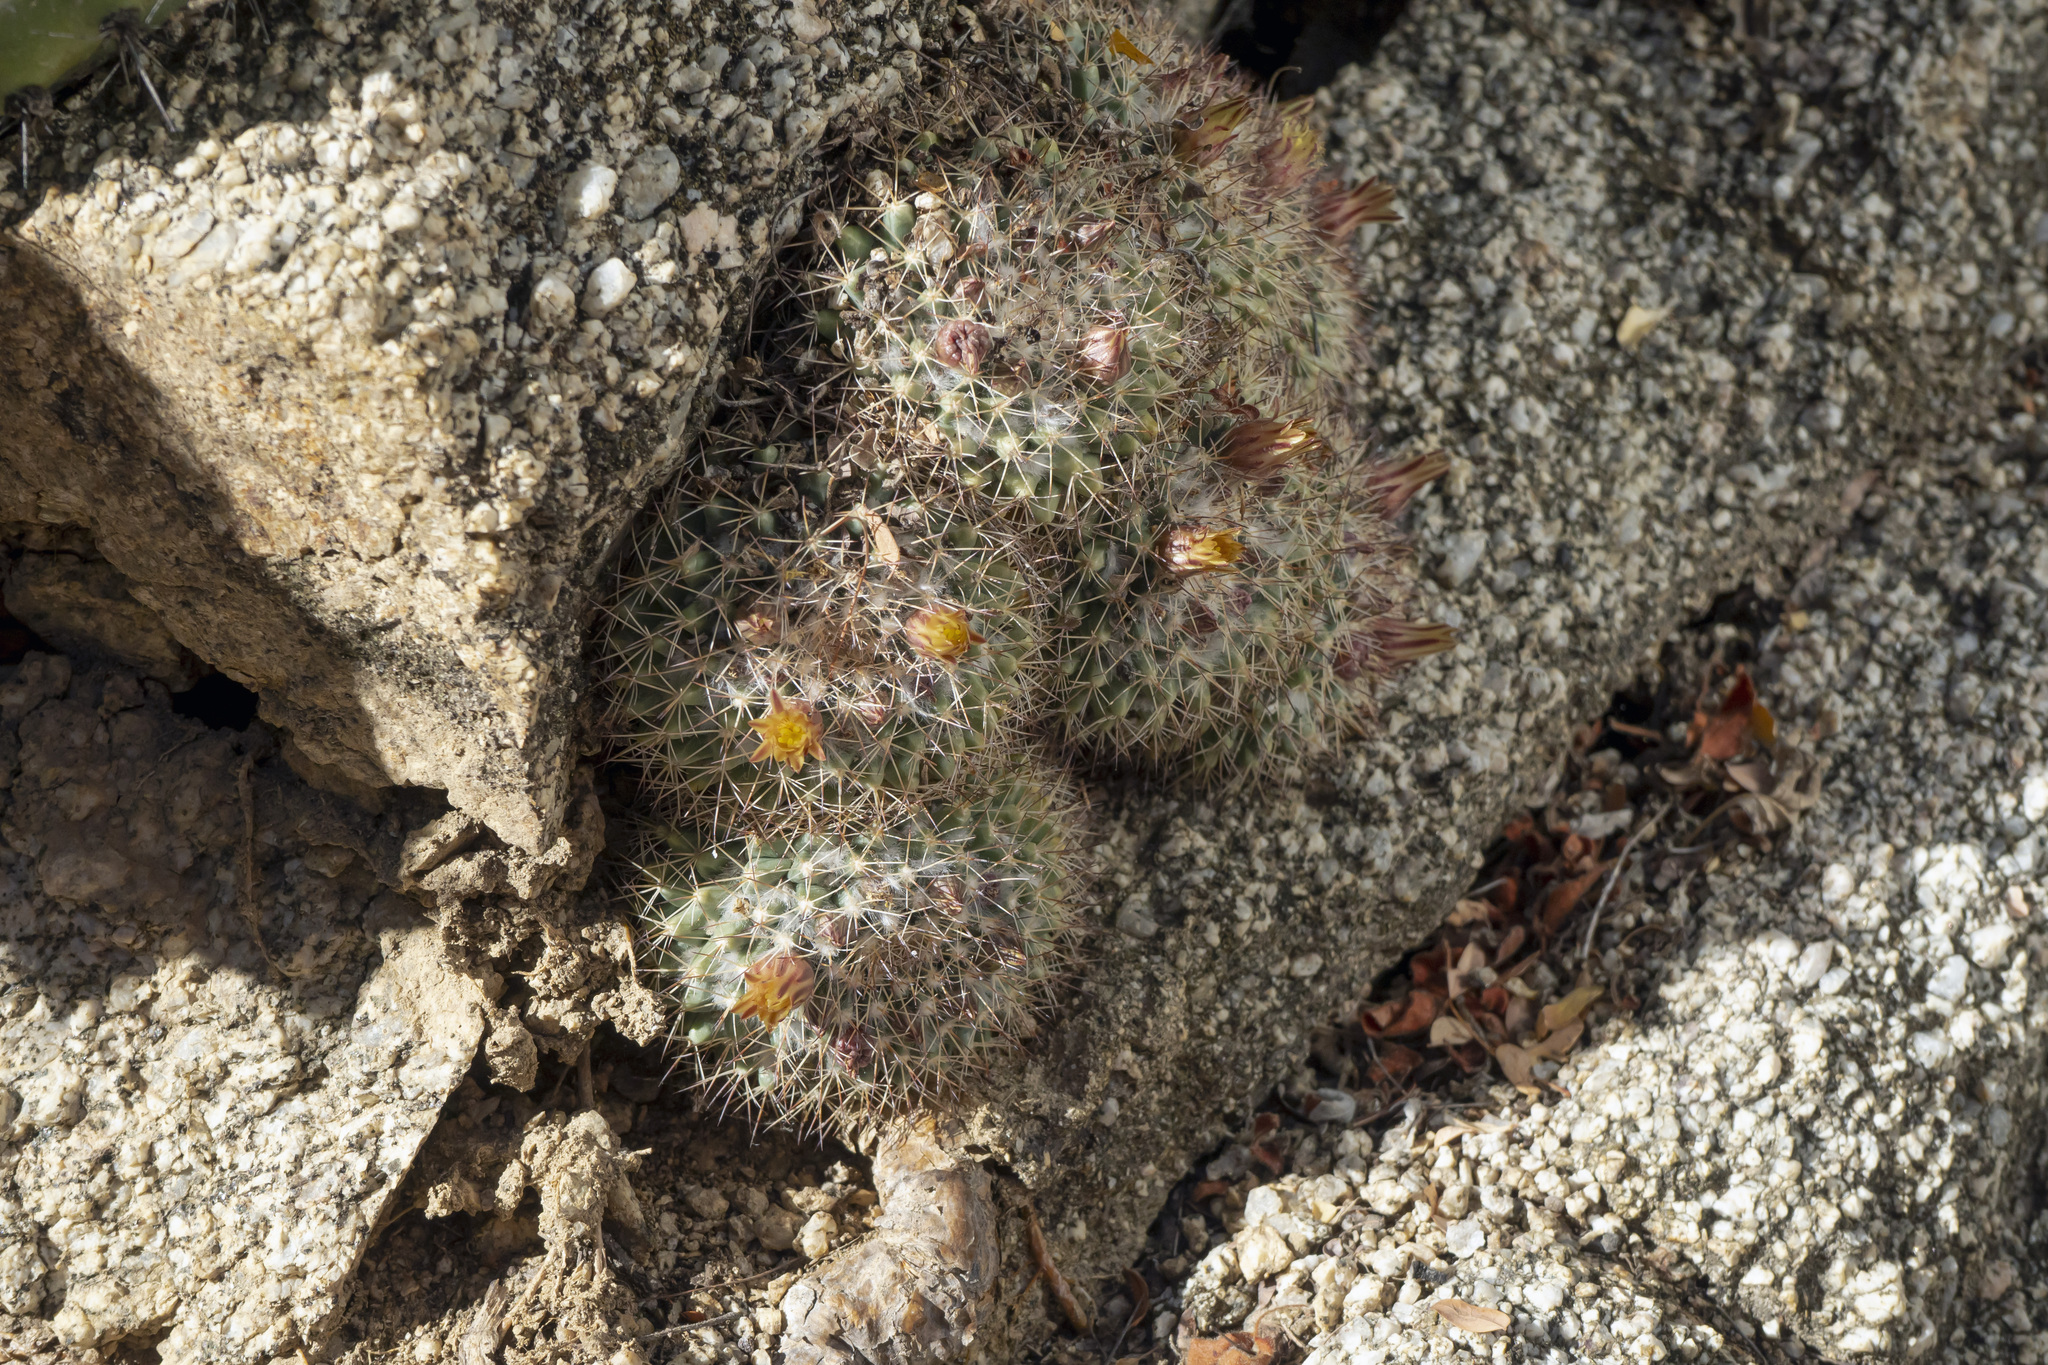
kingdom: Plantae
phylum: Tracheophyta
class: Magnoliopsida
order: Caryophyllales
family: Cactaceae
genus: Mammillaria
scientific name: Mammillaria petrophila
